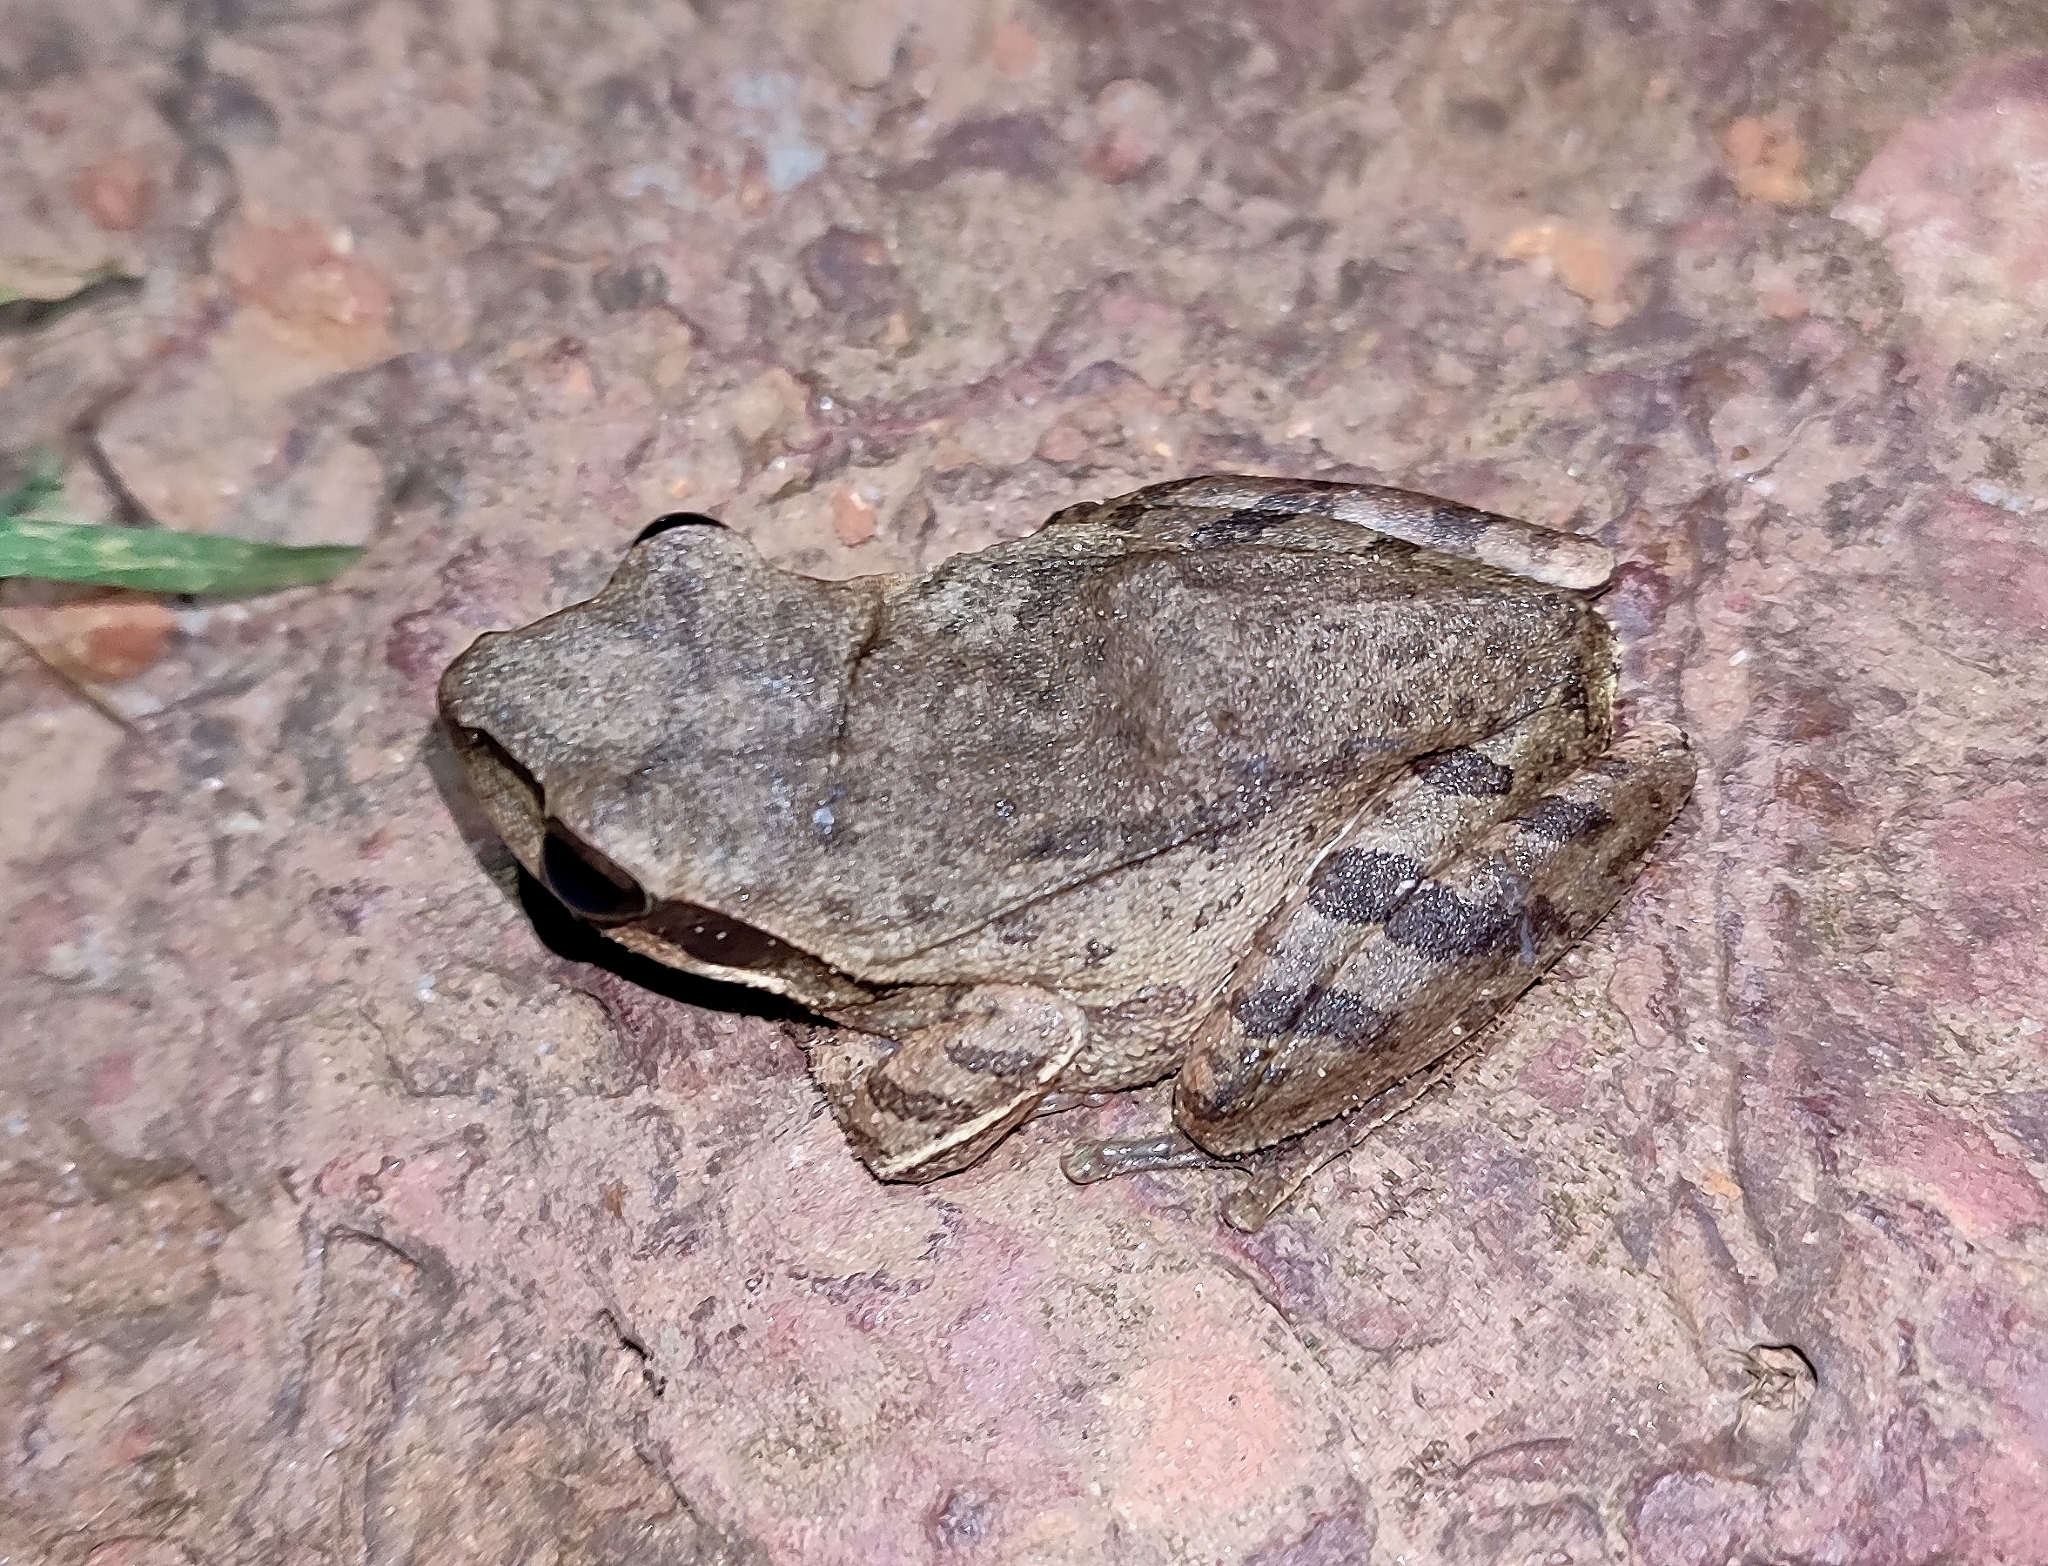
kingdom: Animalia
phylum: Chordata
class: Amphibia
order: Anura
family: Rhacophoridae
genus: Polypedates
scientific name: Polypedates maculatus
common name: Himalayan tree frog
